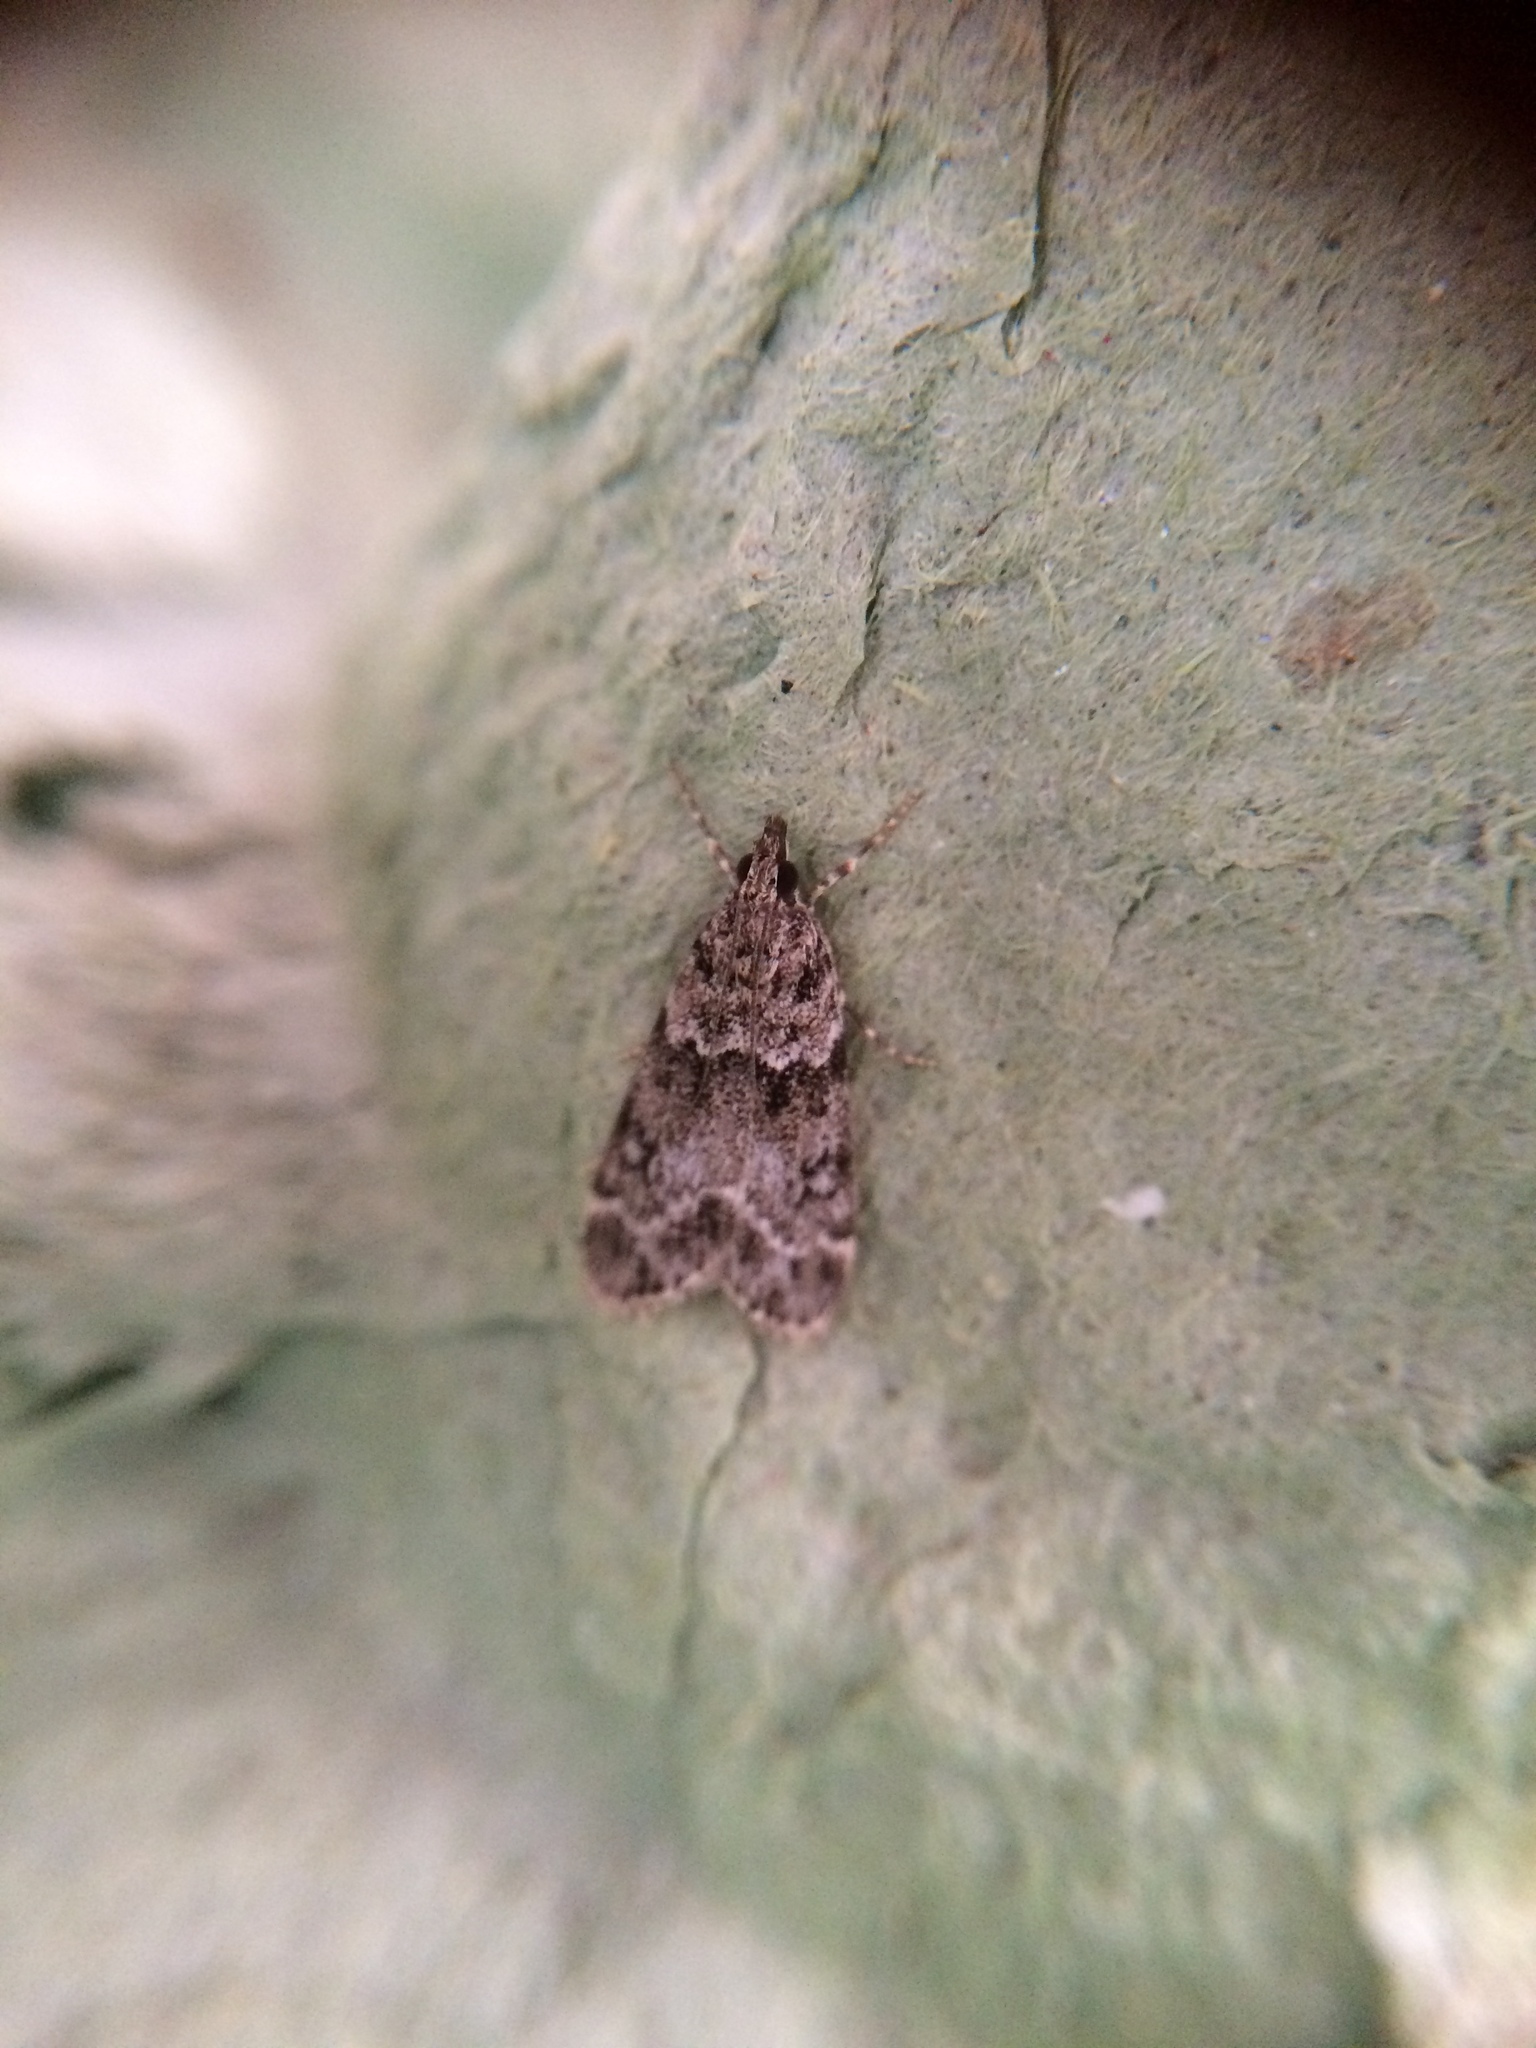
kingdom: Animalia
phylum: Arthropoda
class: Insecta
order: Lepidoptera
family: Crambidae
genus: Eudonia
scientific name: Eudonia mercurella
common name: Small grey
